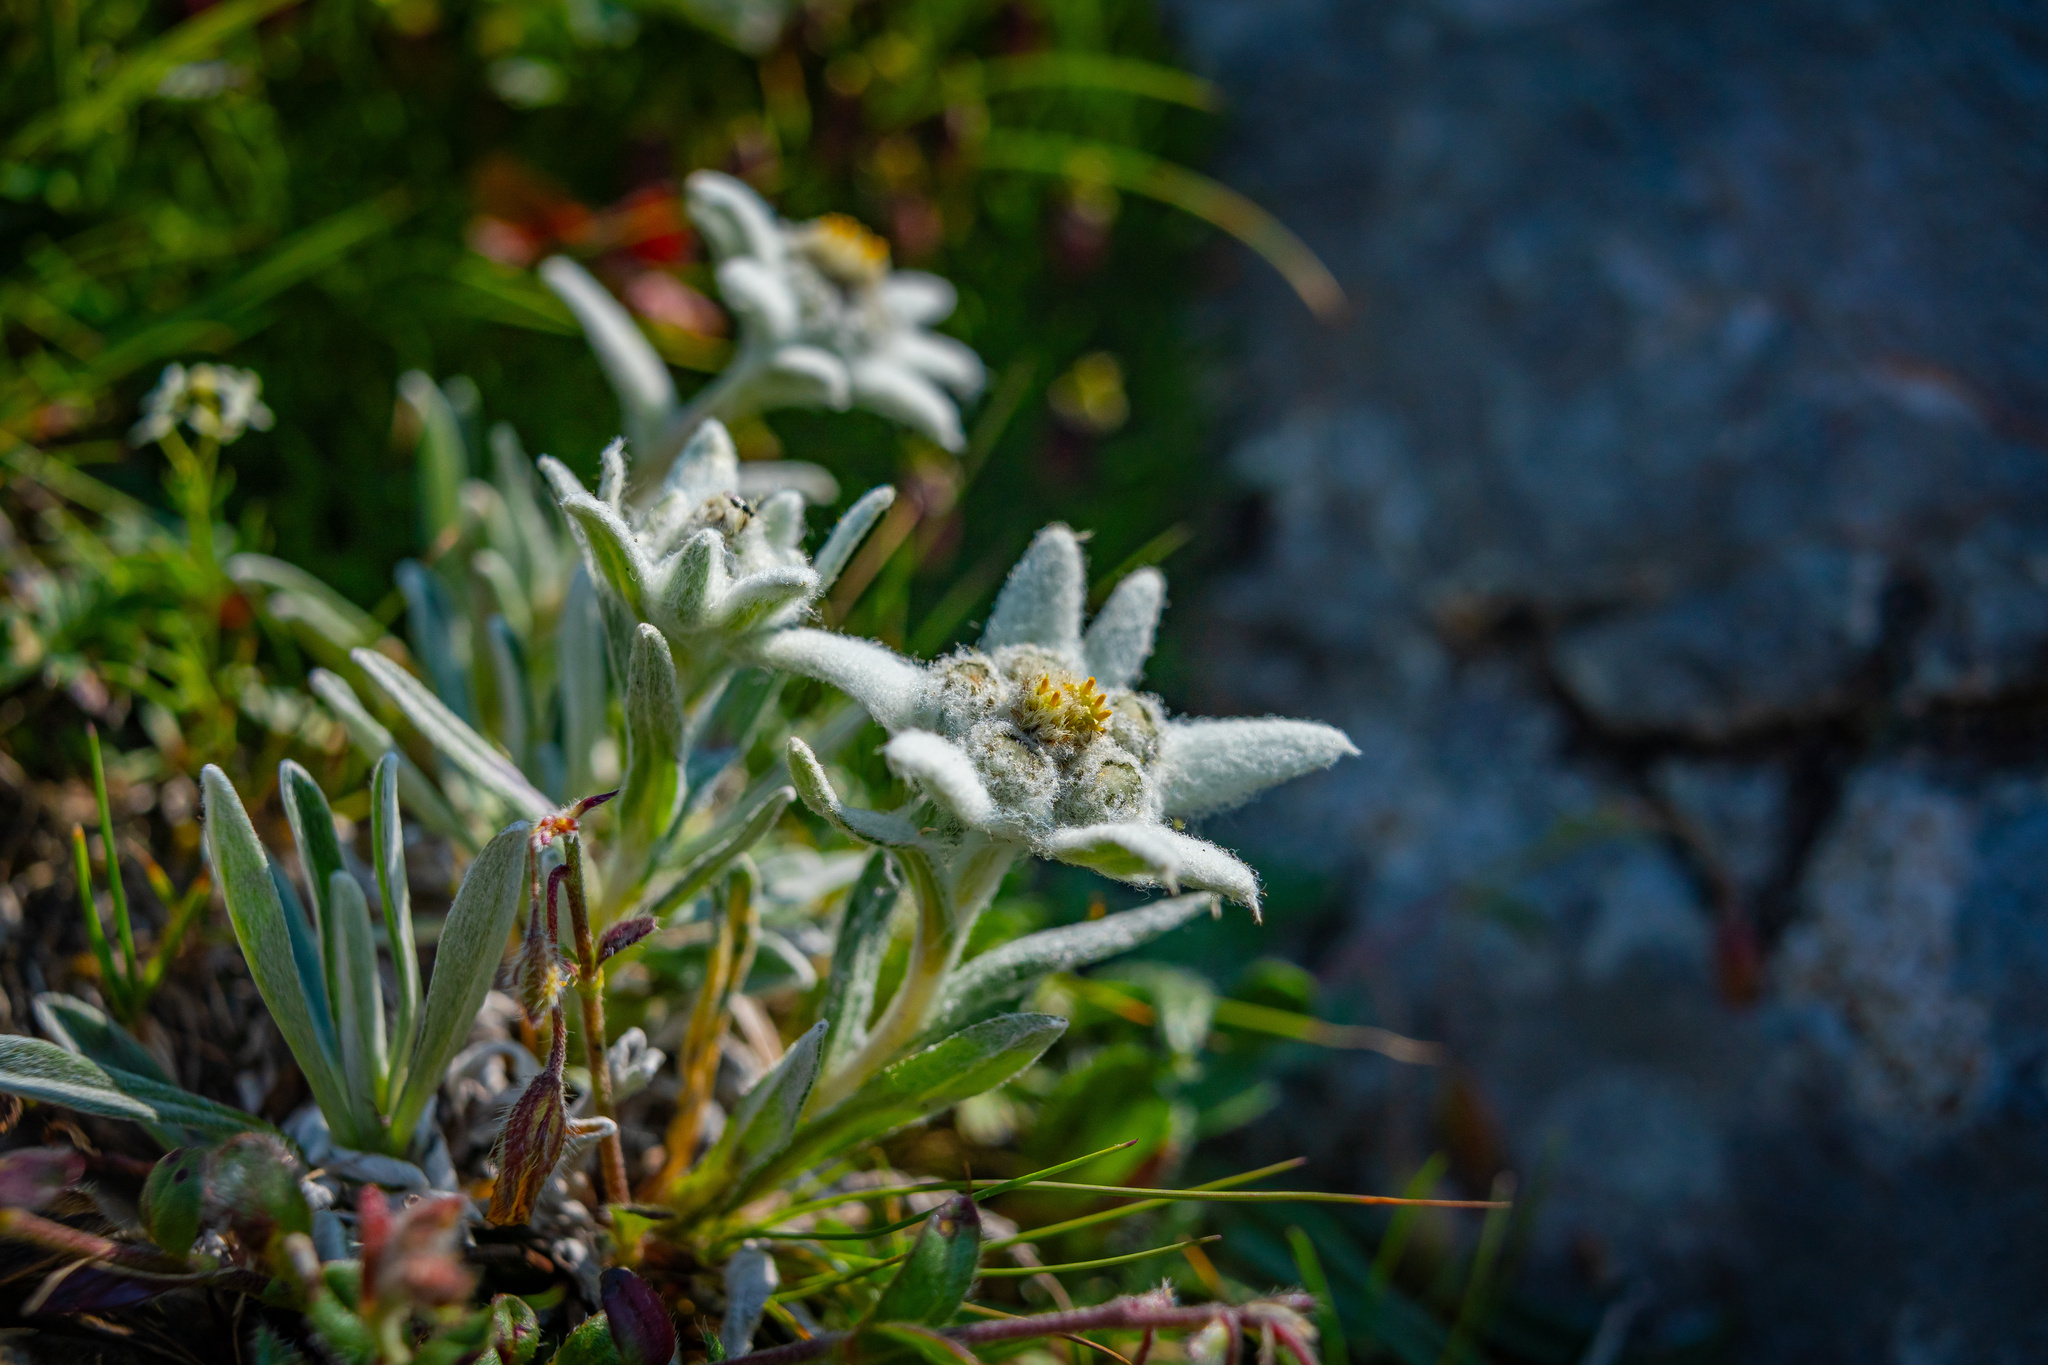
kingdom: Plantae
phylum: Tracheophyta
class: Magnoliopsida
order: Asterales
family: Asteraceae
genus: Leontopodium
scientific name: Leontopodium nivale
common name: Edelweiss
